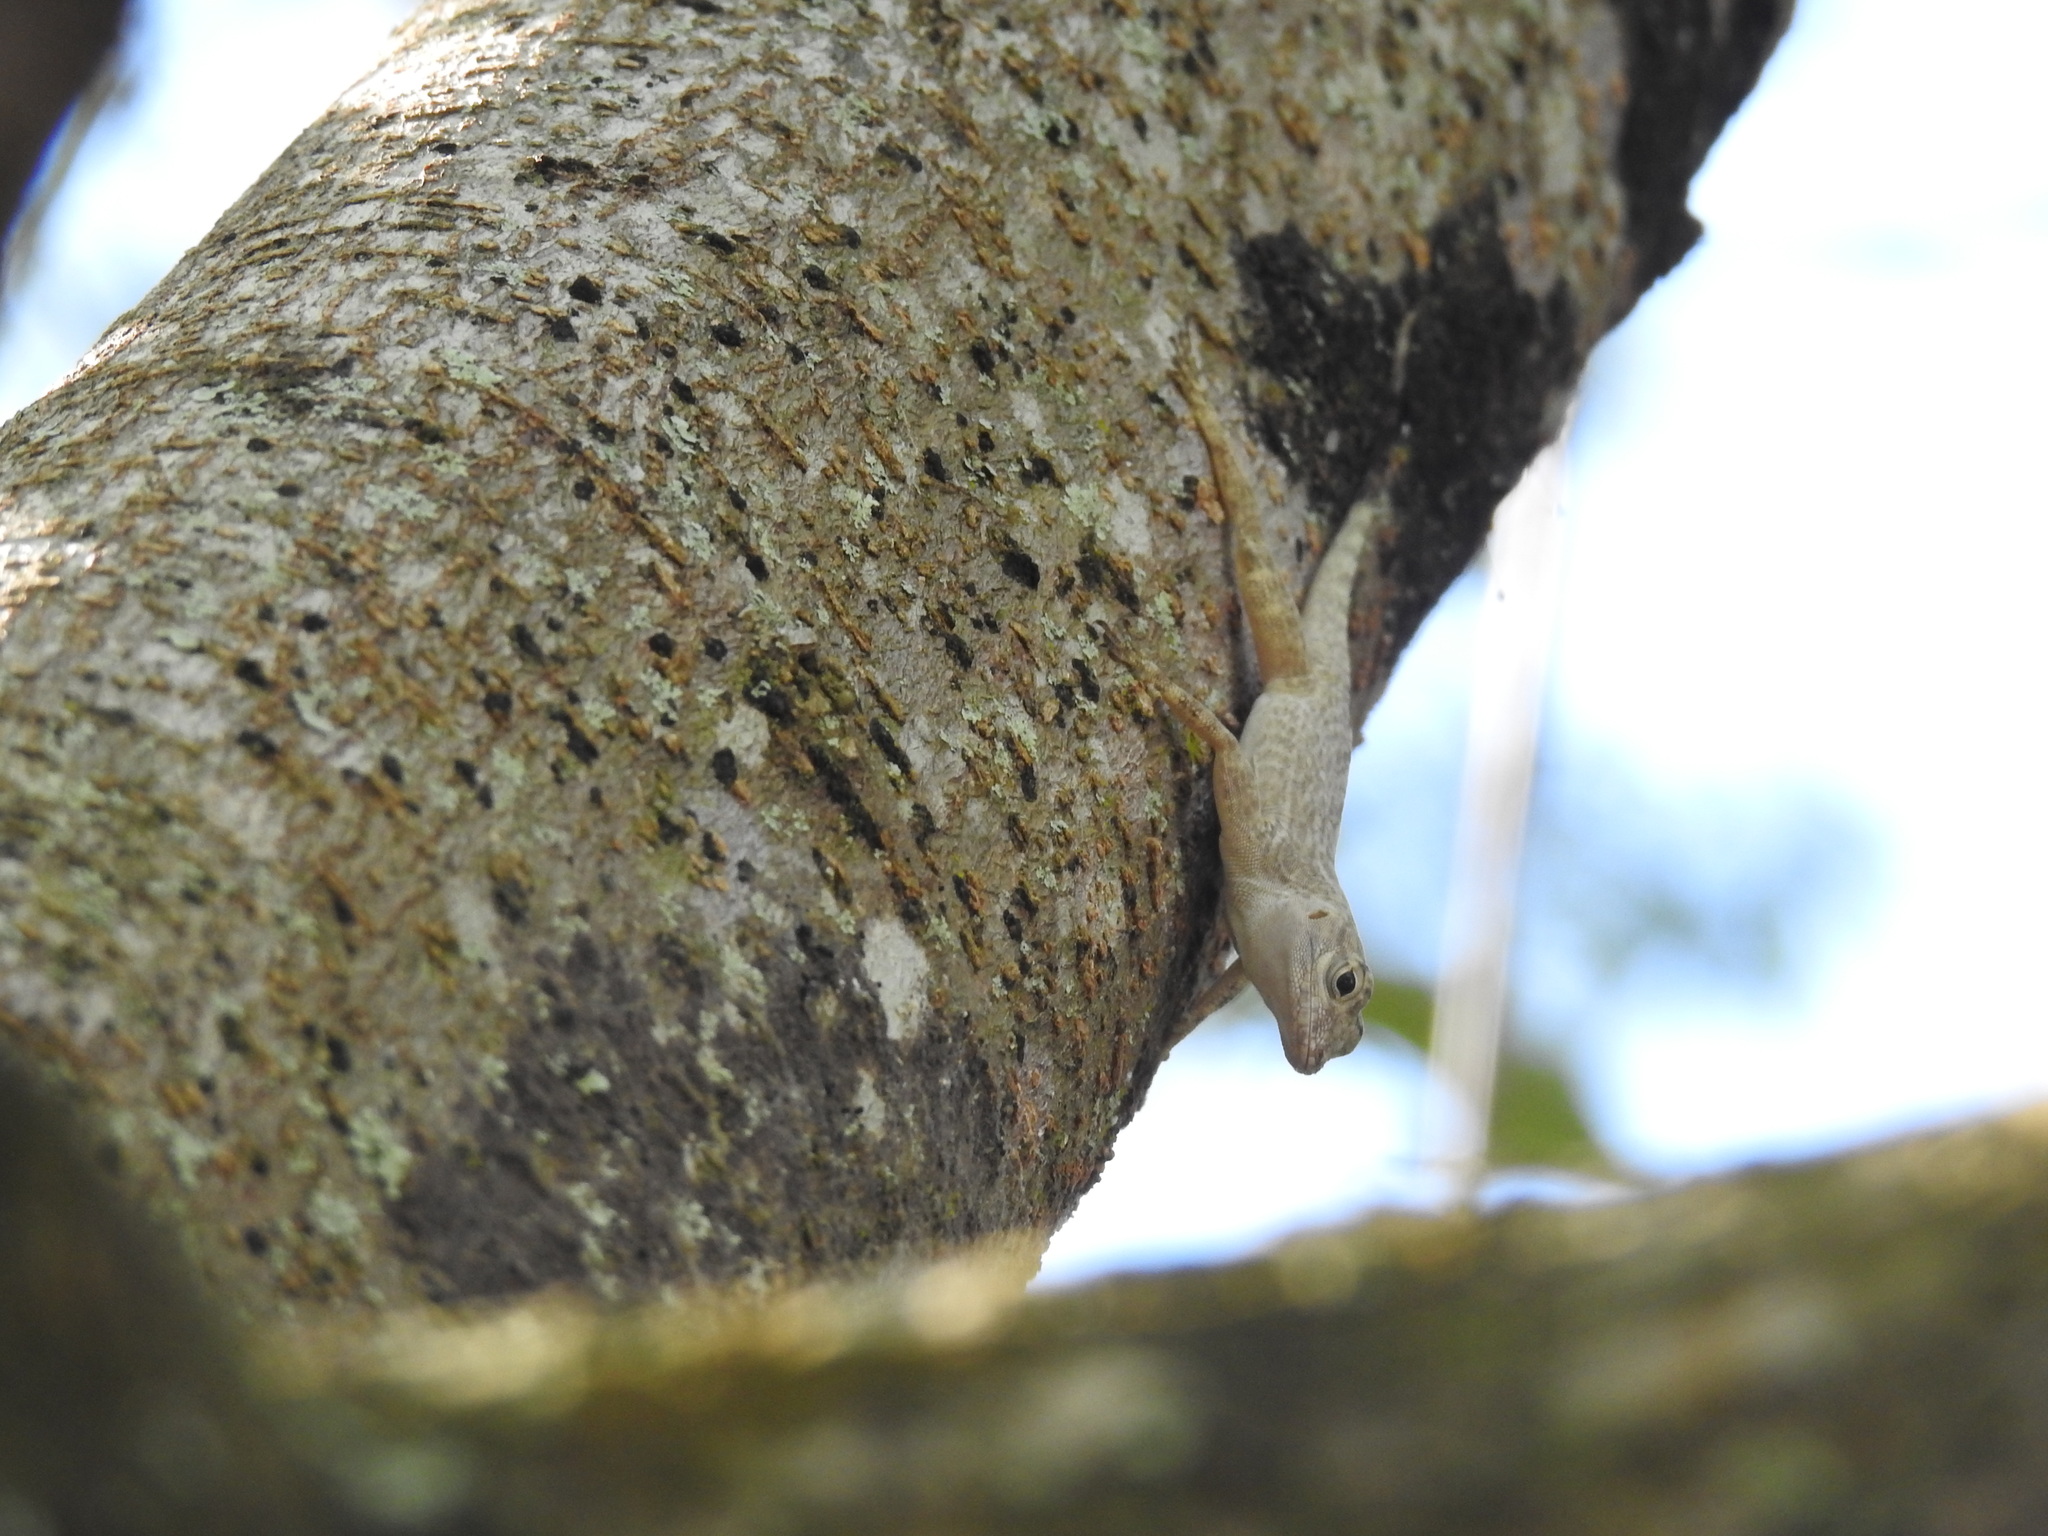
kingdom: Animalia
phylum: Chordata
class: Squamata
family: Dactyloidae
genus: Anolis
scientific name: Anolis distichus
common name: Bark anole
